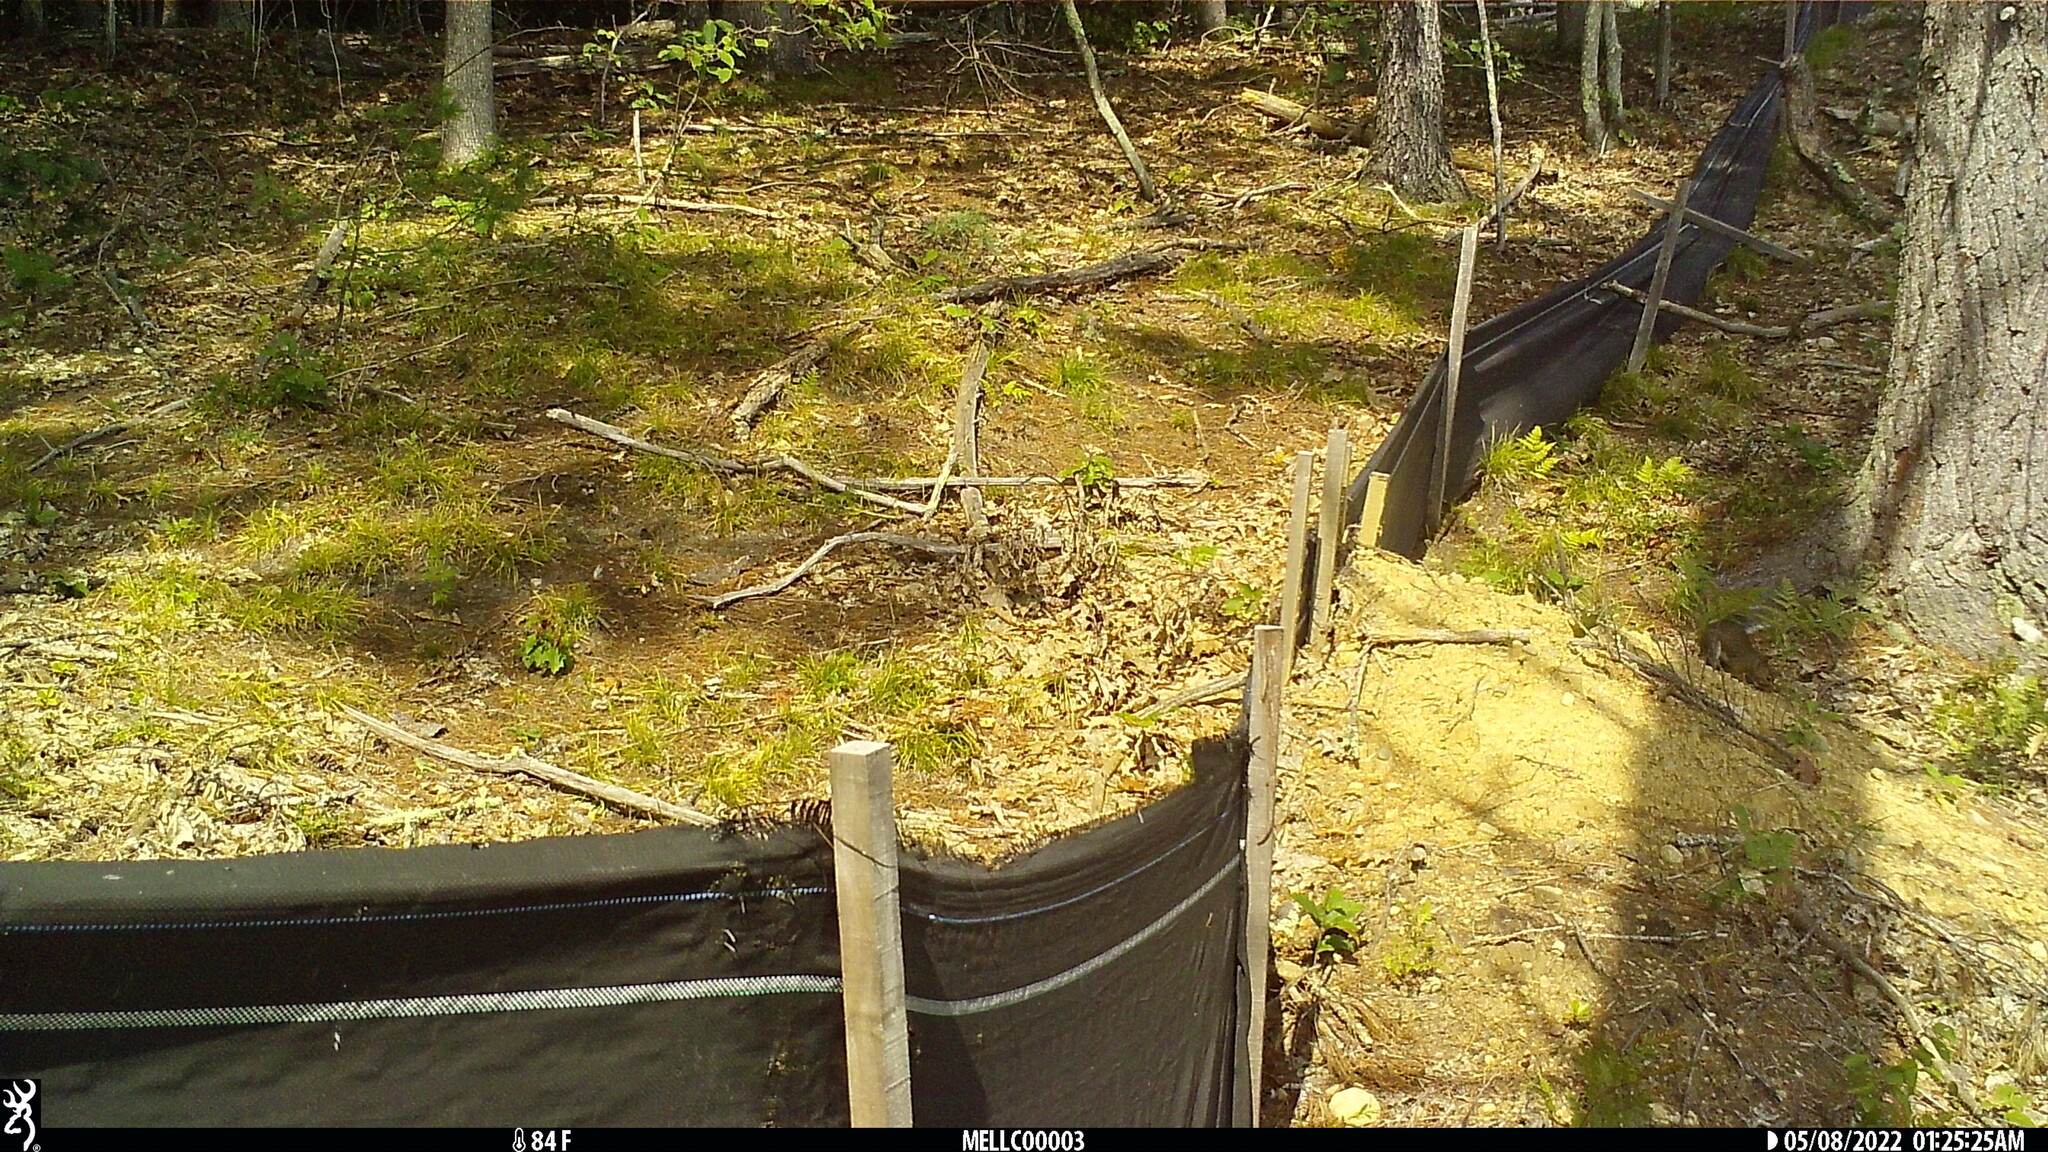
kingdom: Animalia
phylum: Chordata
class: Mammalia
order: Rodentia
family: Sciuridae
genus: Sciurus
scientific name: Sciurus carolinensis
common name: Eastern gray squirrel
